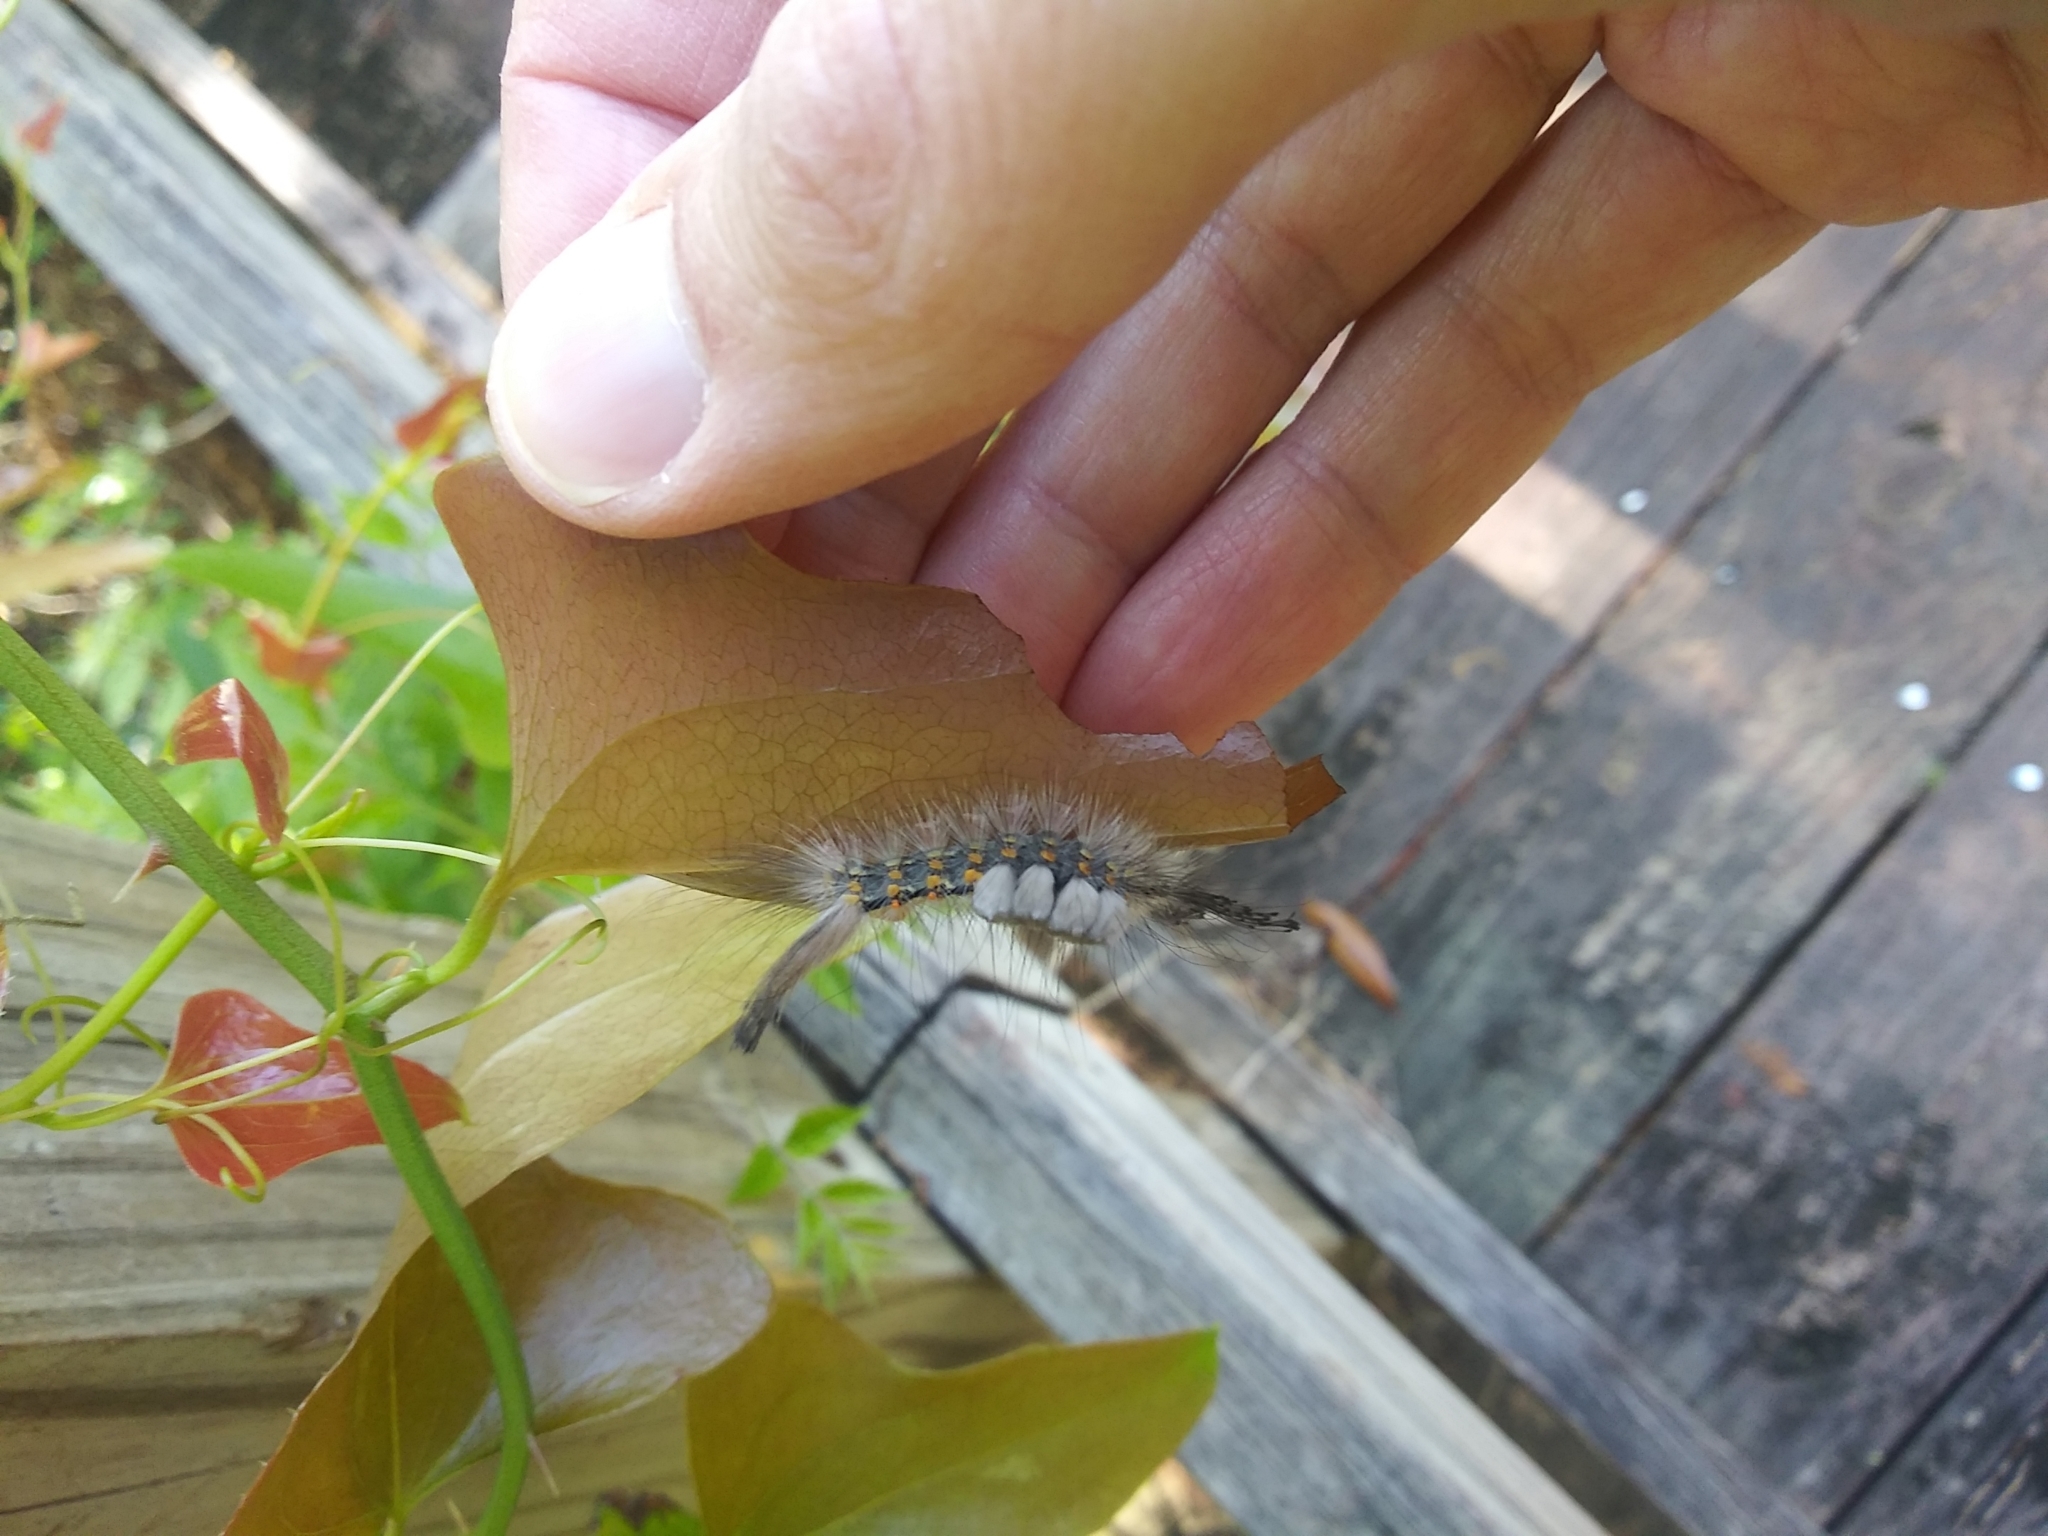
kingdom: Animalia
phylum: Arthropoda
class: Insecta
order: Lepidoptera
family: Erebidae
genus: Orgyia
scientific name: Orgyia detrita
